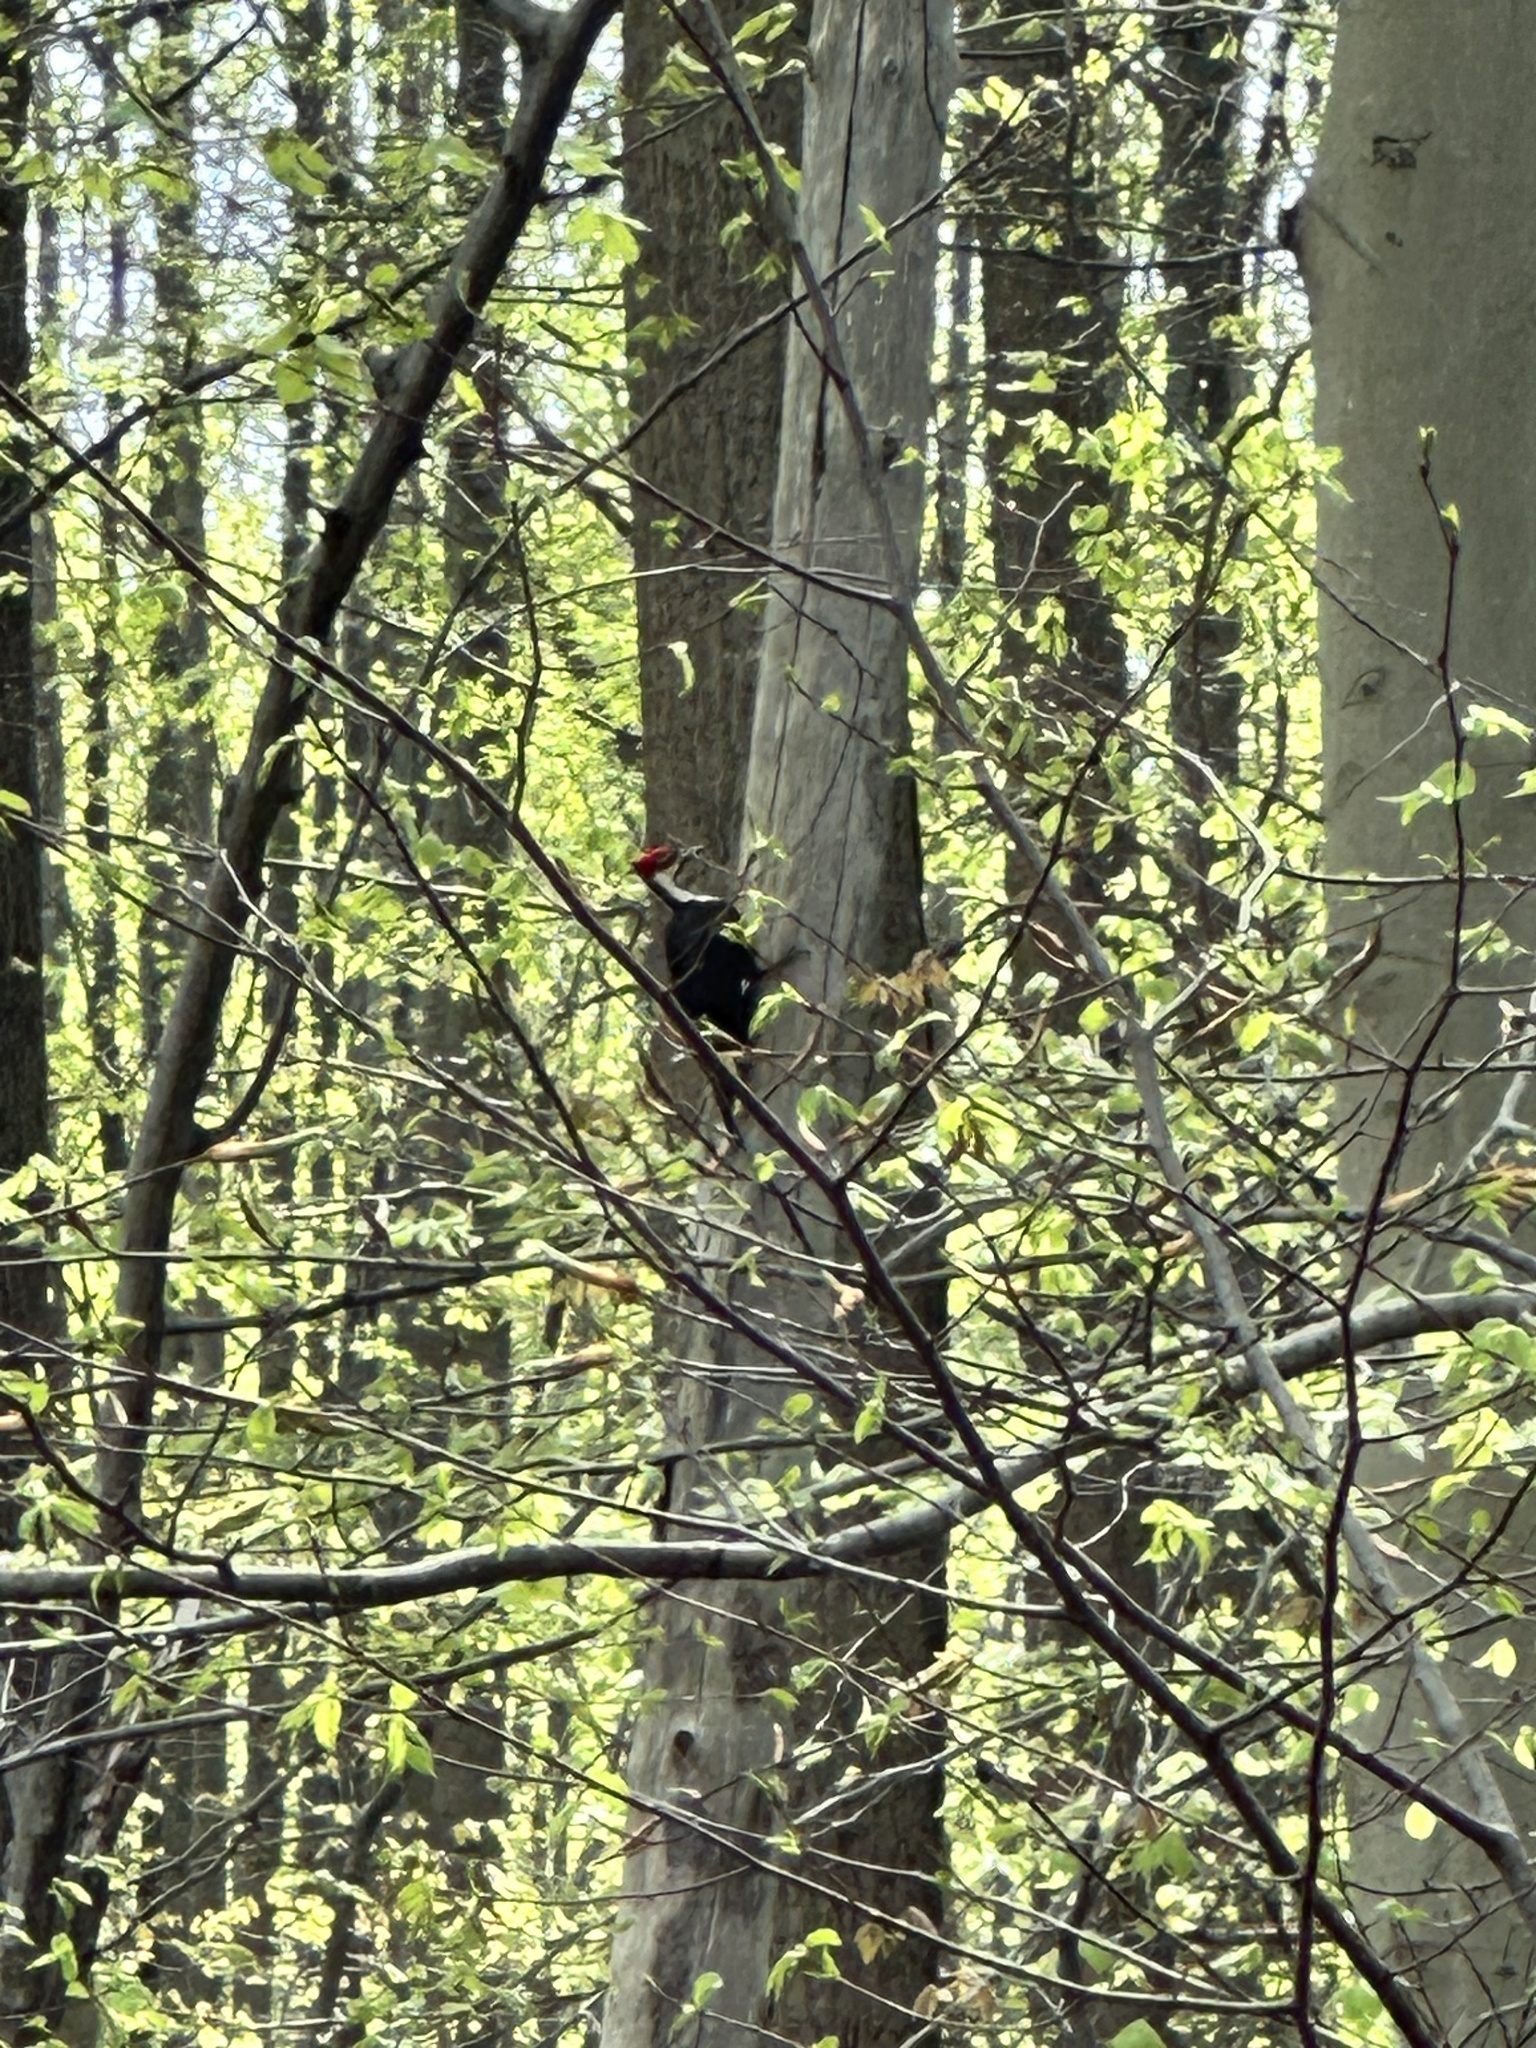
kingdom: Animalia
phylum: Chordata
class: Aves
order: Piciformes
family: Picidae
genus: Dryocopus
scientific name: Dryocopus pileatus
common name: Pileated woodpecker
